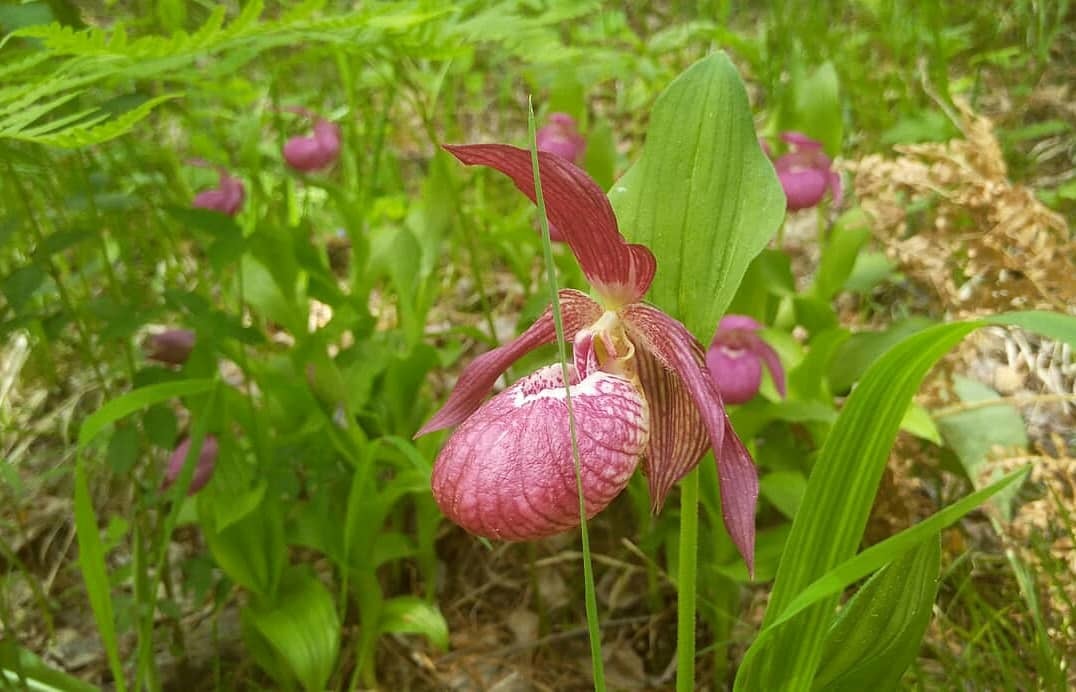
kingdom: Plantae
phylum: Tracheophyta
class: Liliopsida
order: Asparagales
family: Orchidaceae
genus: Cypripedium
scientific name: Cypripedium ventricosum
